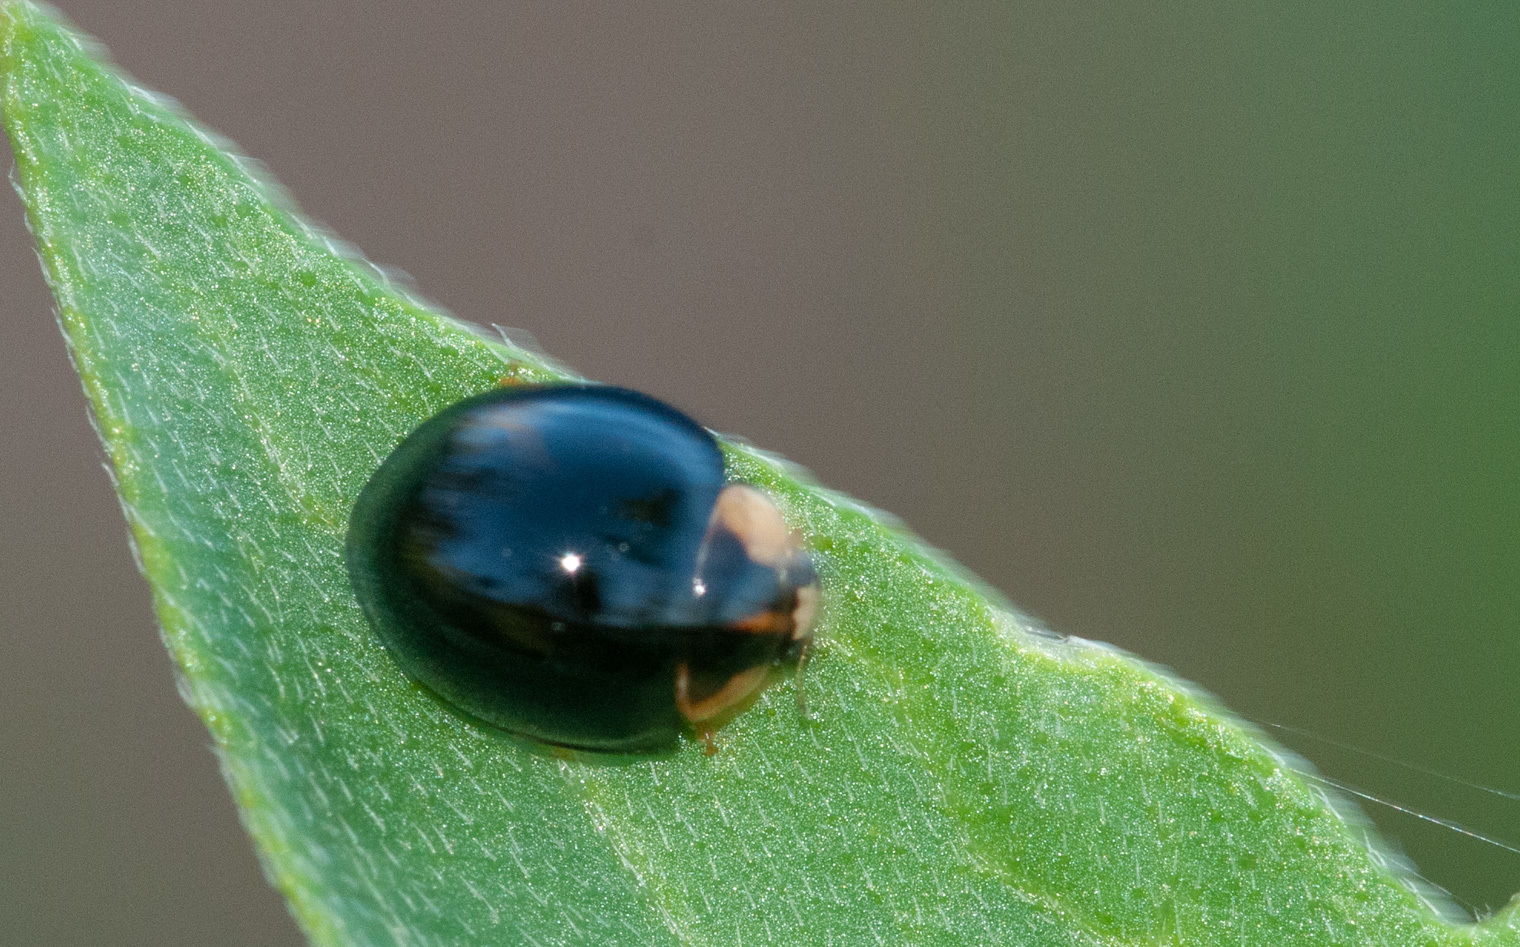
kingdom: Animalia
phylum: Arthropoda
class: Insecta
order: Coleoptera
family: Coccinellidae
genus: Coelophora
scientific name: Coelophora inaequalis
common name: Common australian lady beetle
